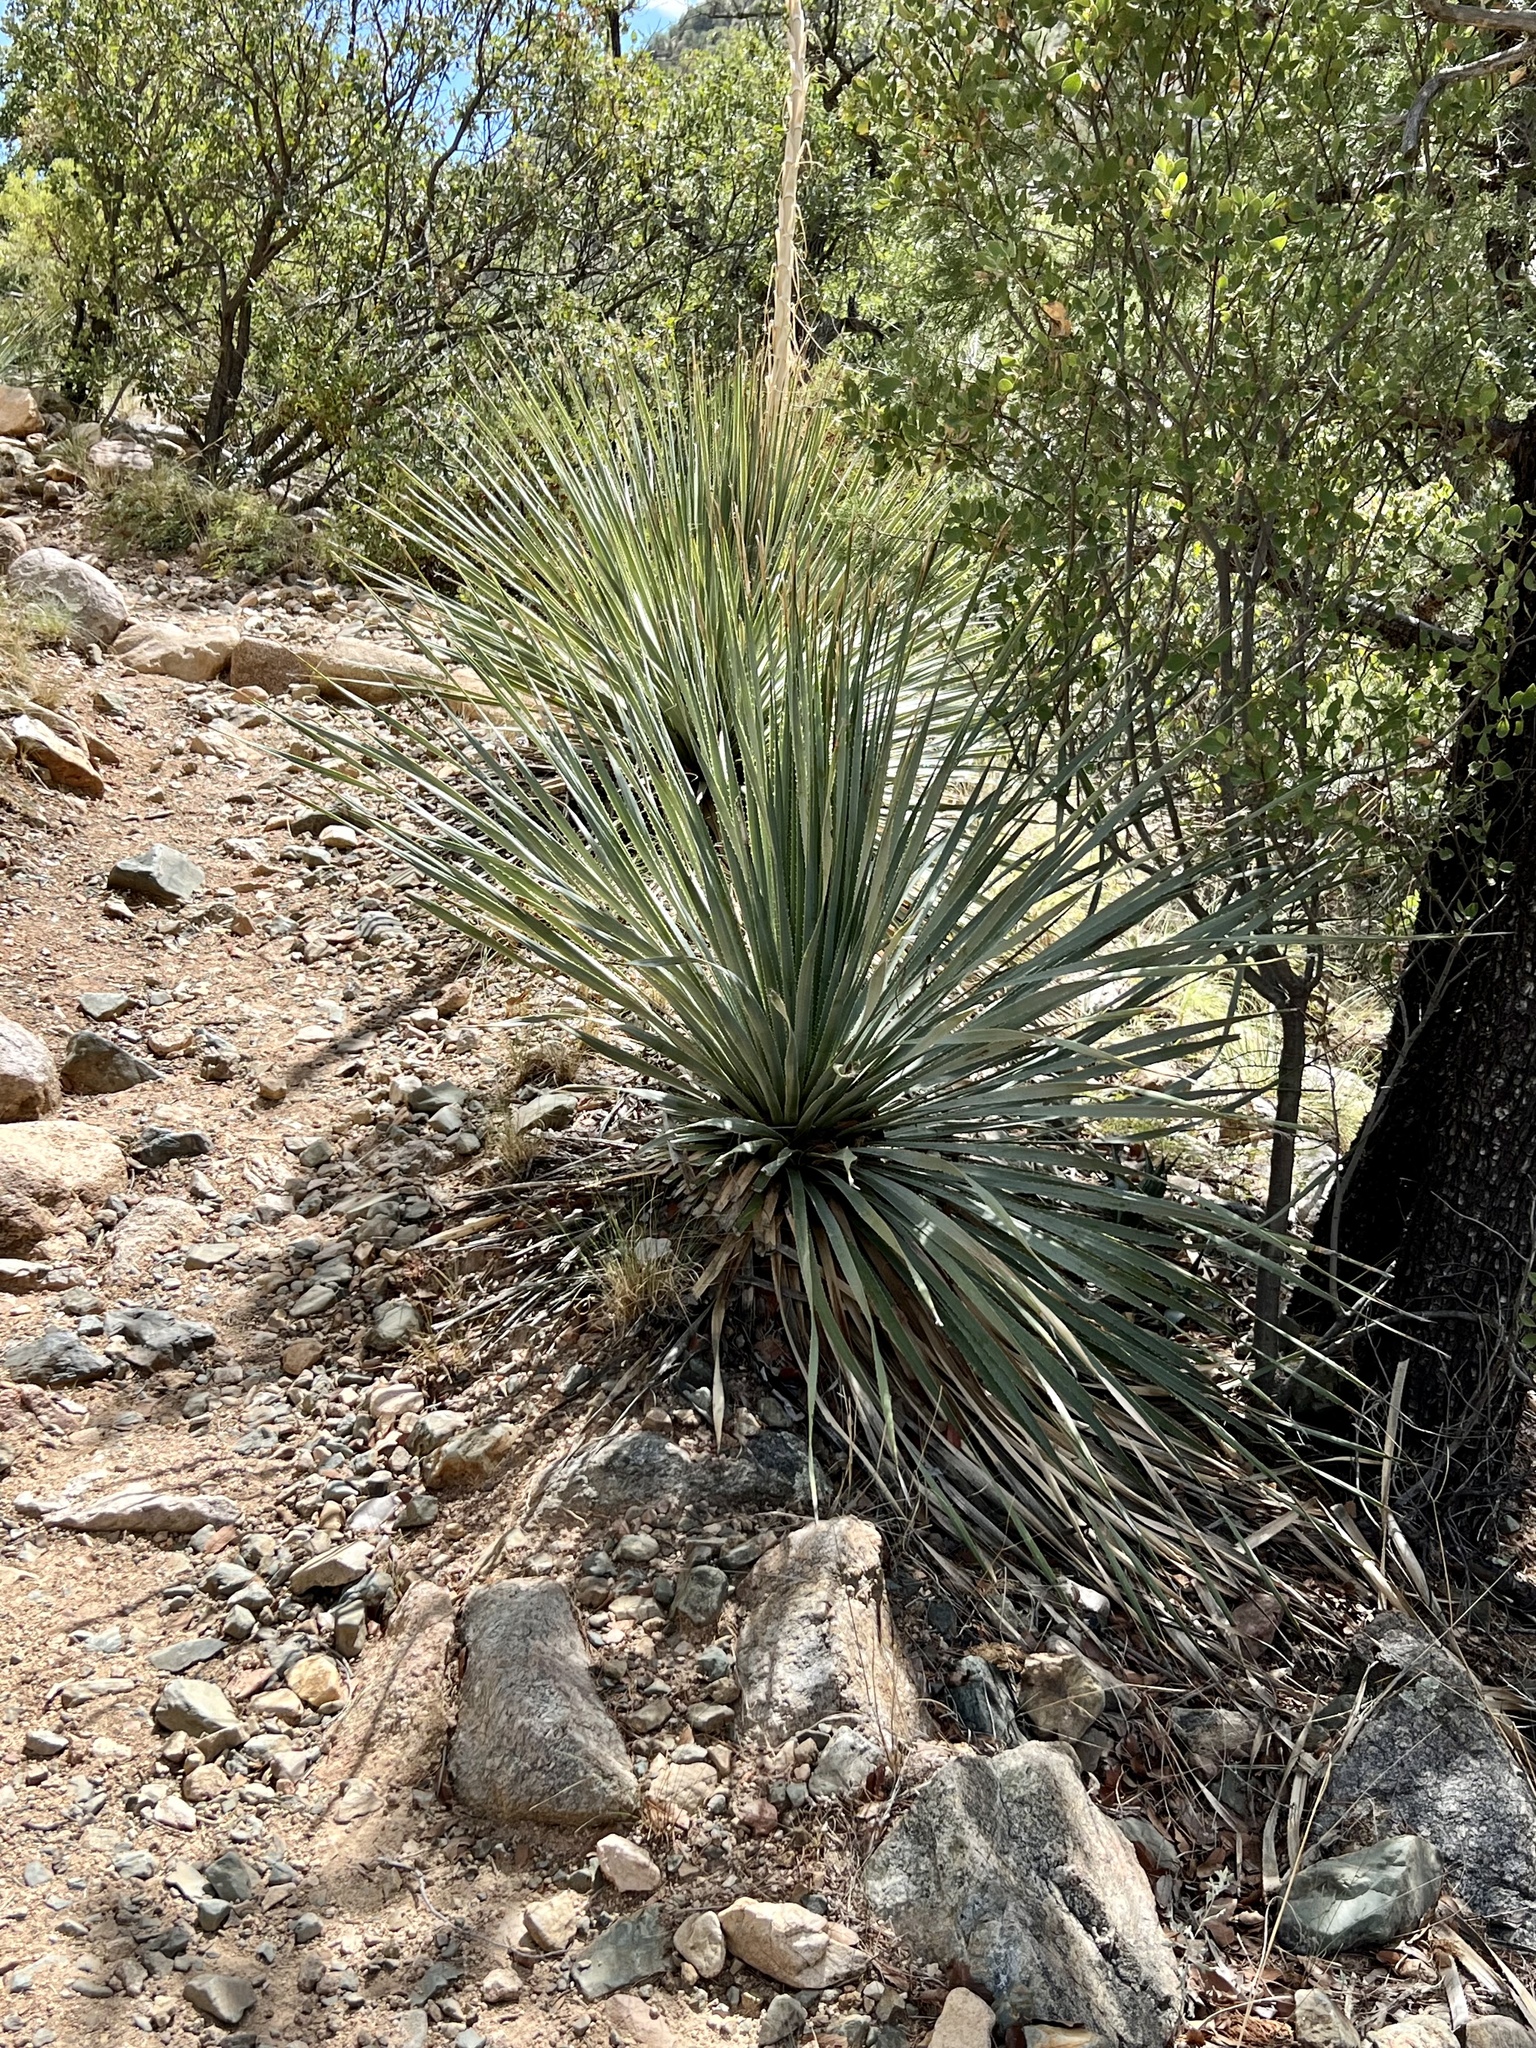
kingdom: Plantae
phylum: Tracheophyta
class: Liliopsida
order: Asparagales
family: Asparagaceae
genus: Dasylirion
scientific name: Dasylirion wheeleri
